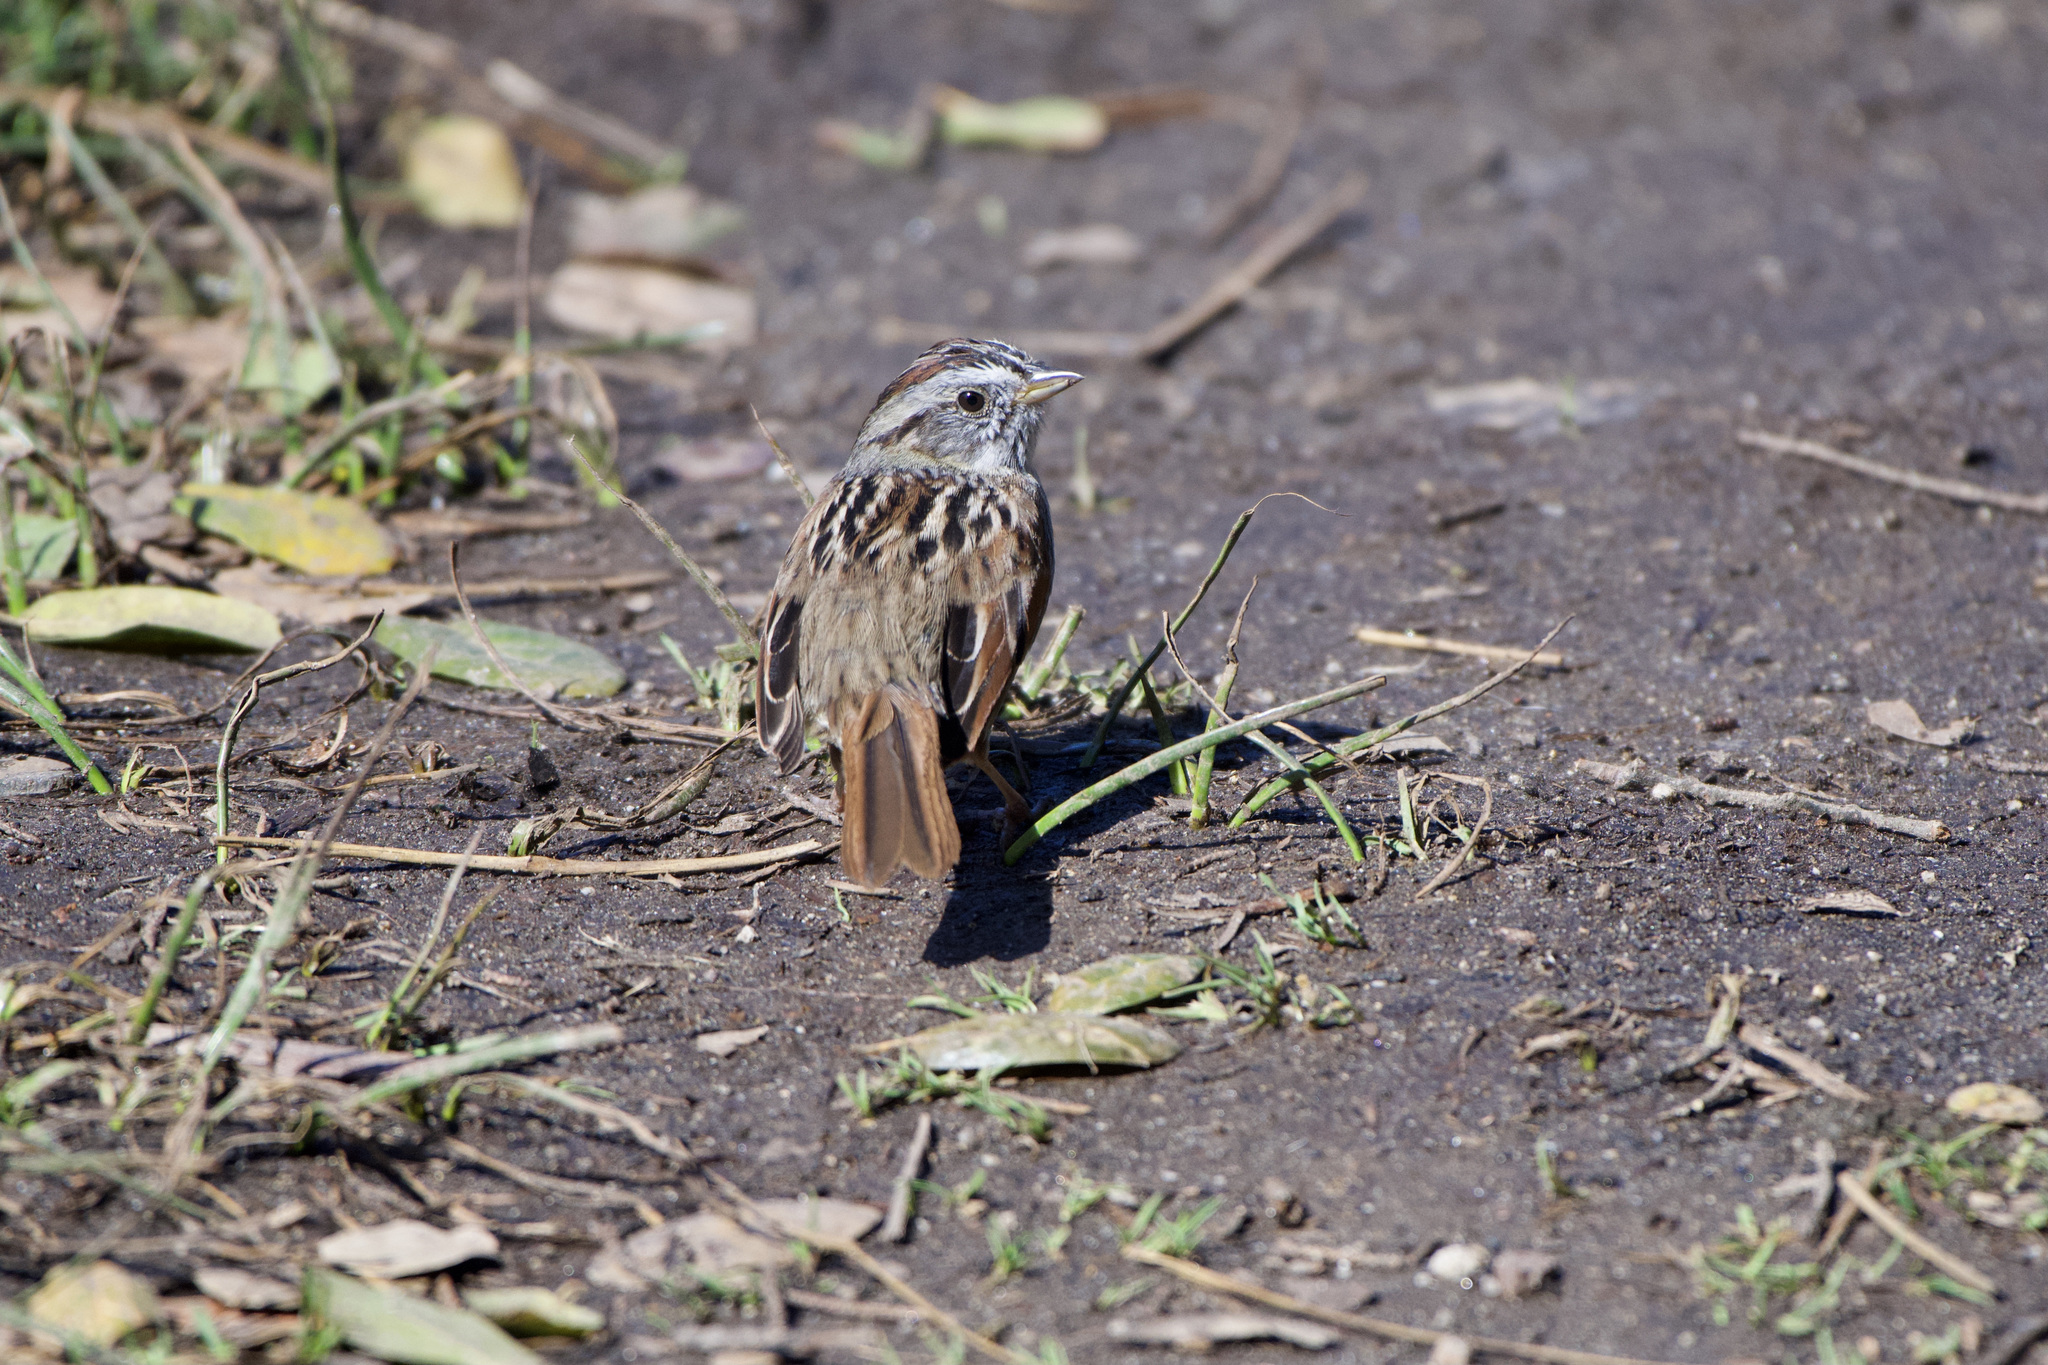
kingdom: Animalia
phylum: Chordata
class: Aves
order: Passeriformes
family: Passerellidae
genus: Melospiza
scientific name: Melospiza georgiana
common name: Swamp sparrow
